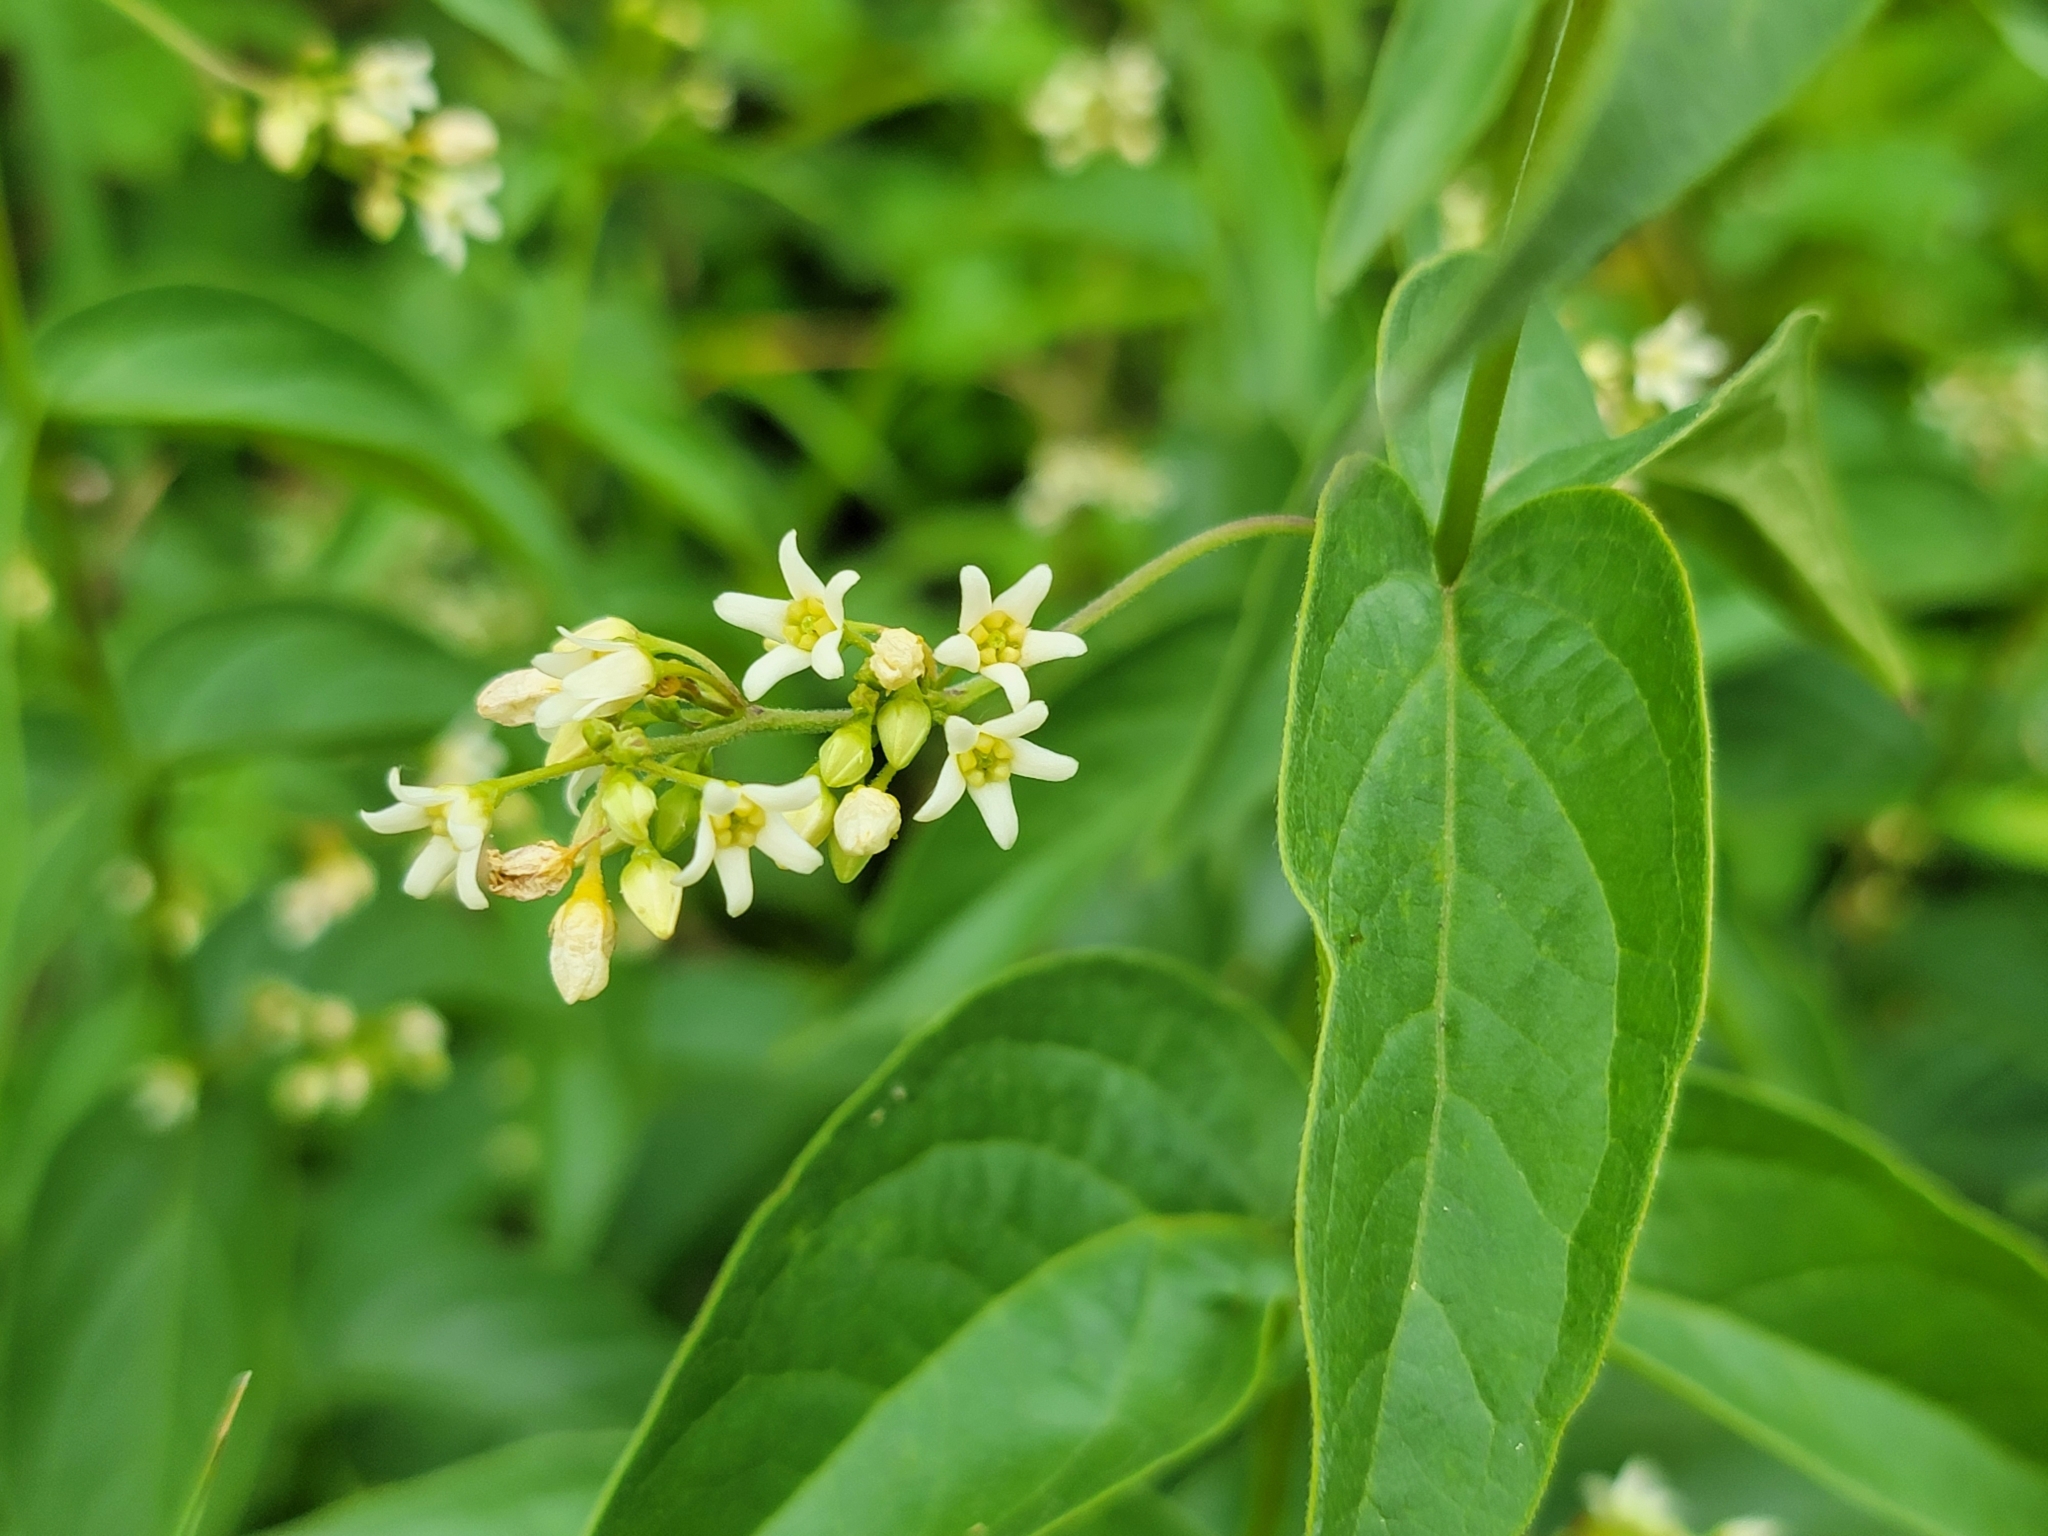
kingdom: Plantae
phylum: Tracheophyta
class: Magnoliopsida
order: Gentianales
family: Apocynaceae
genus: Vincetoxicum
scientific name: Vincetoxicum hirundinaria
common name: White swallowwort
